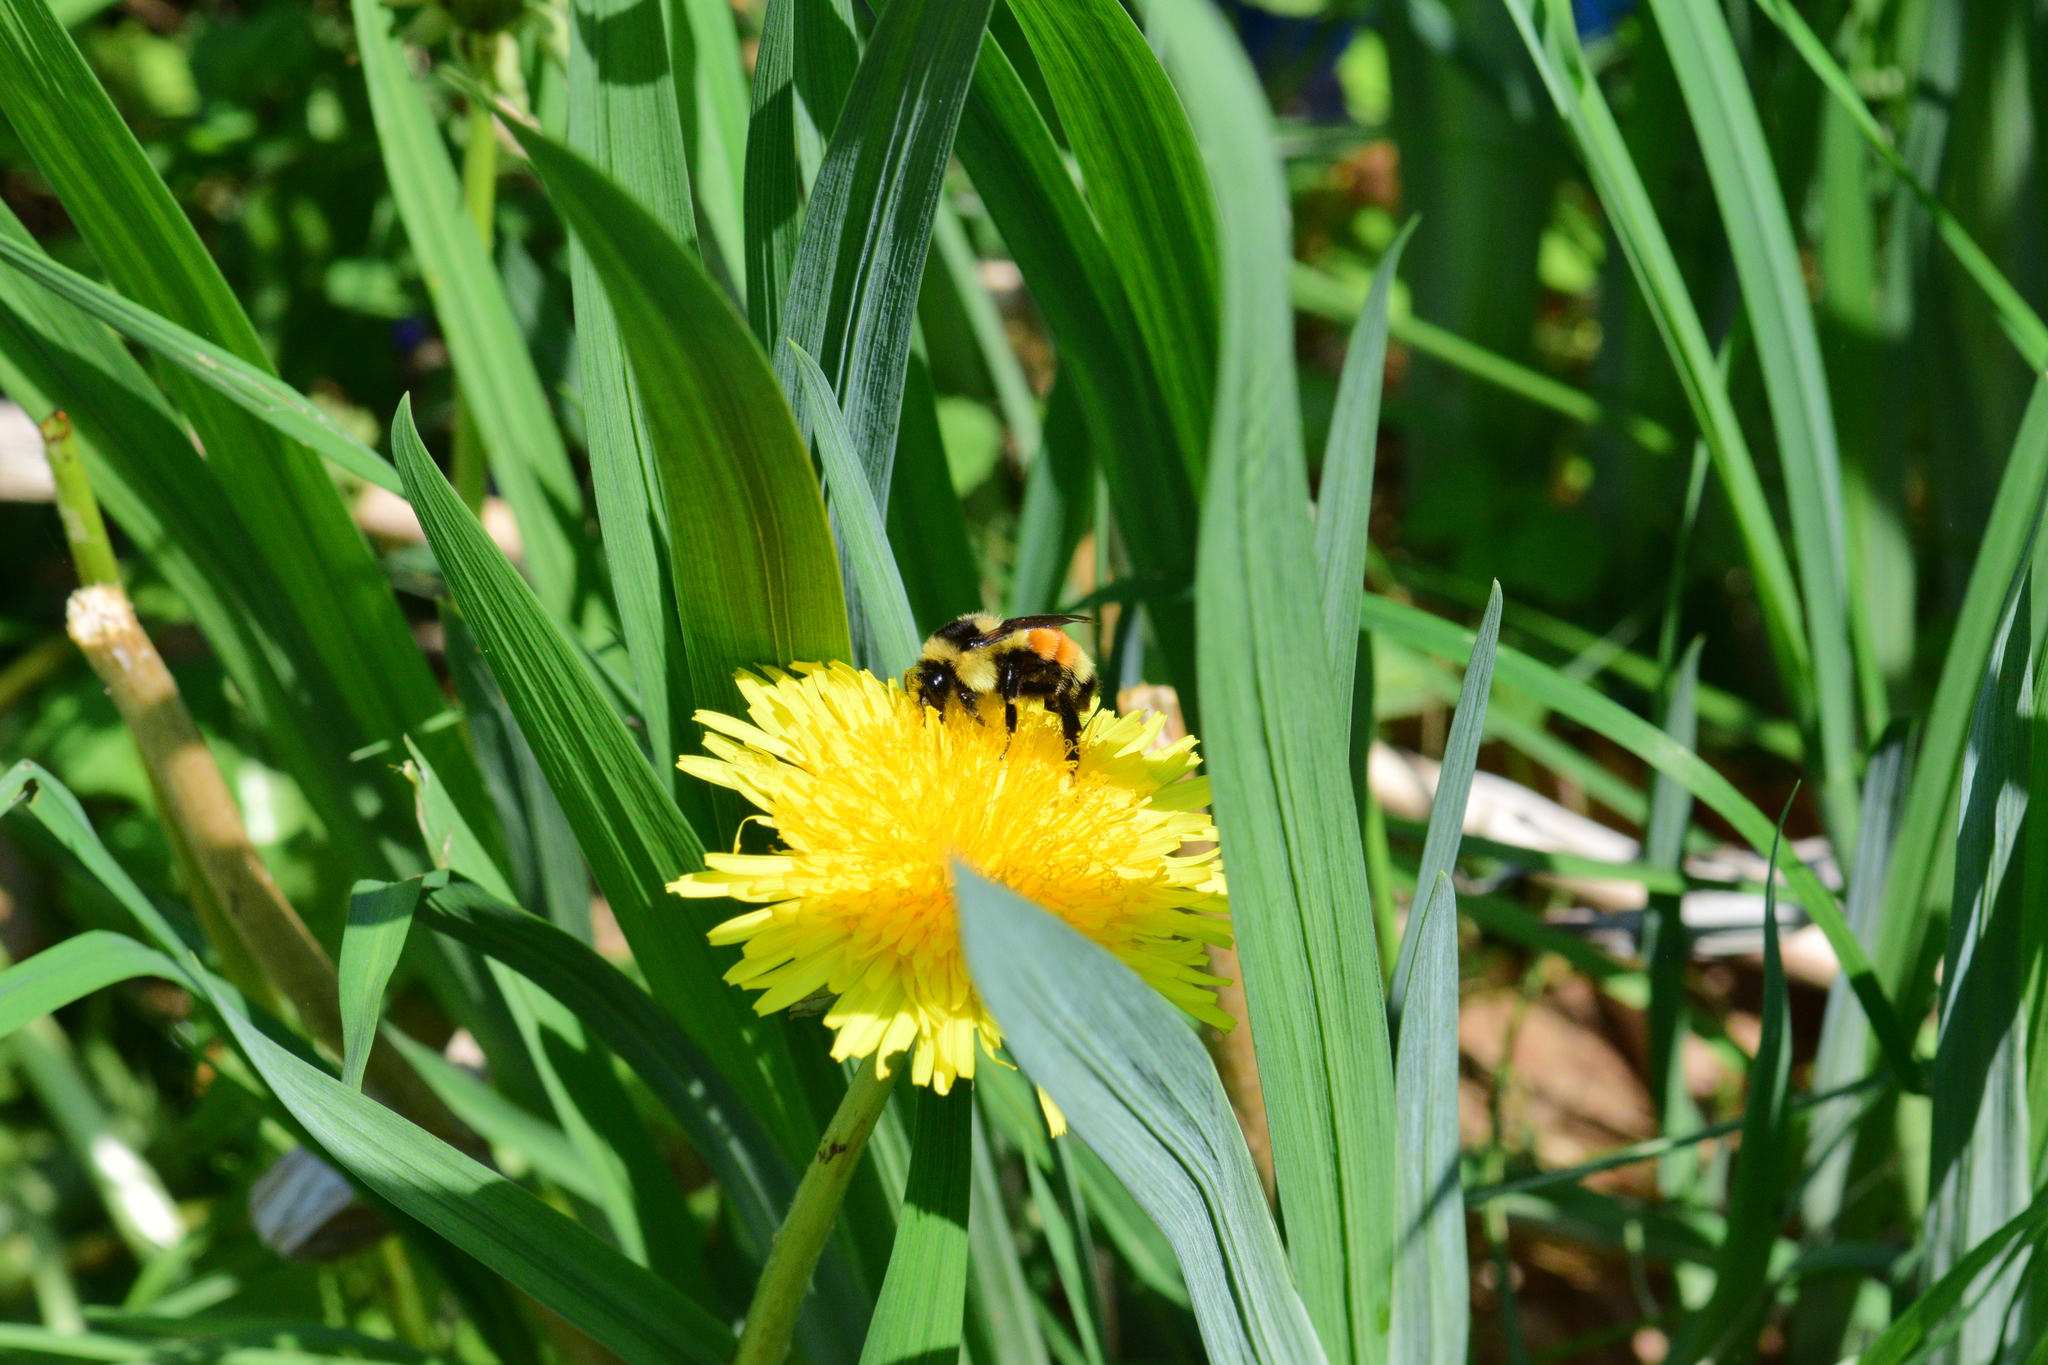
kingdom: Animalia
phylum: Arthropoda
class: Insecta
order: Hymenoptera
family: Apidae
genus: Bombus
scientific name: Bombus ternarius
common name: Tri-colored bumble bee
